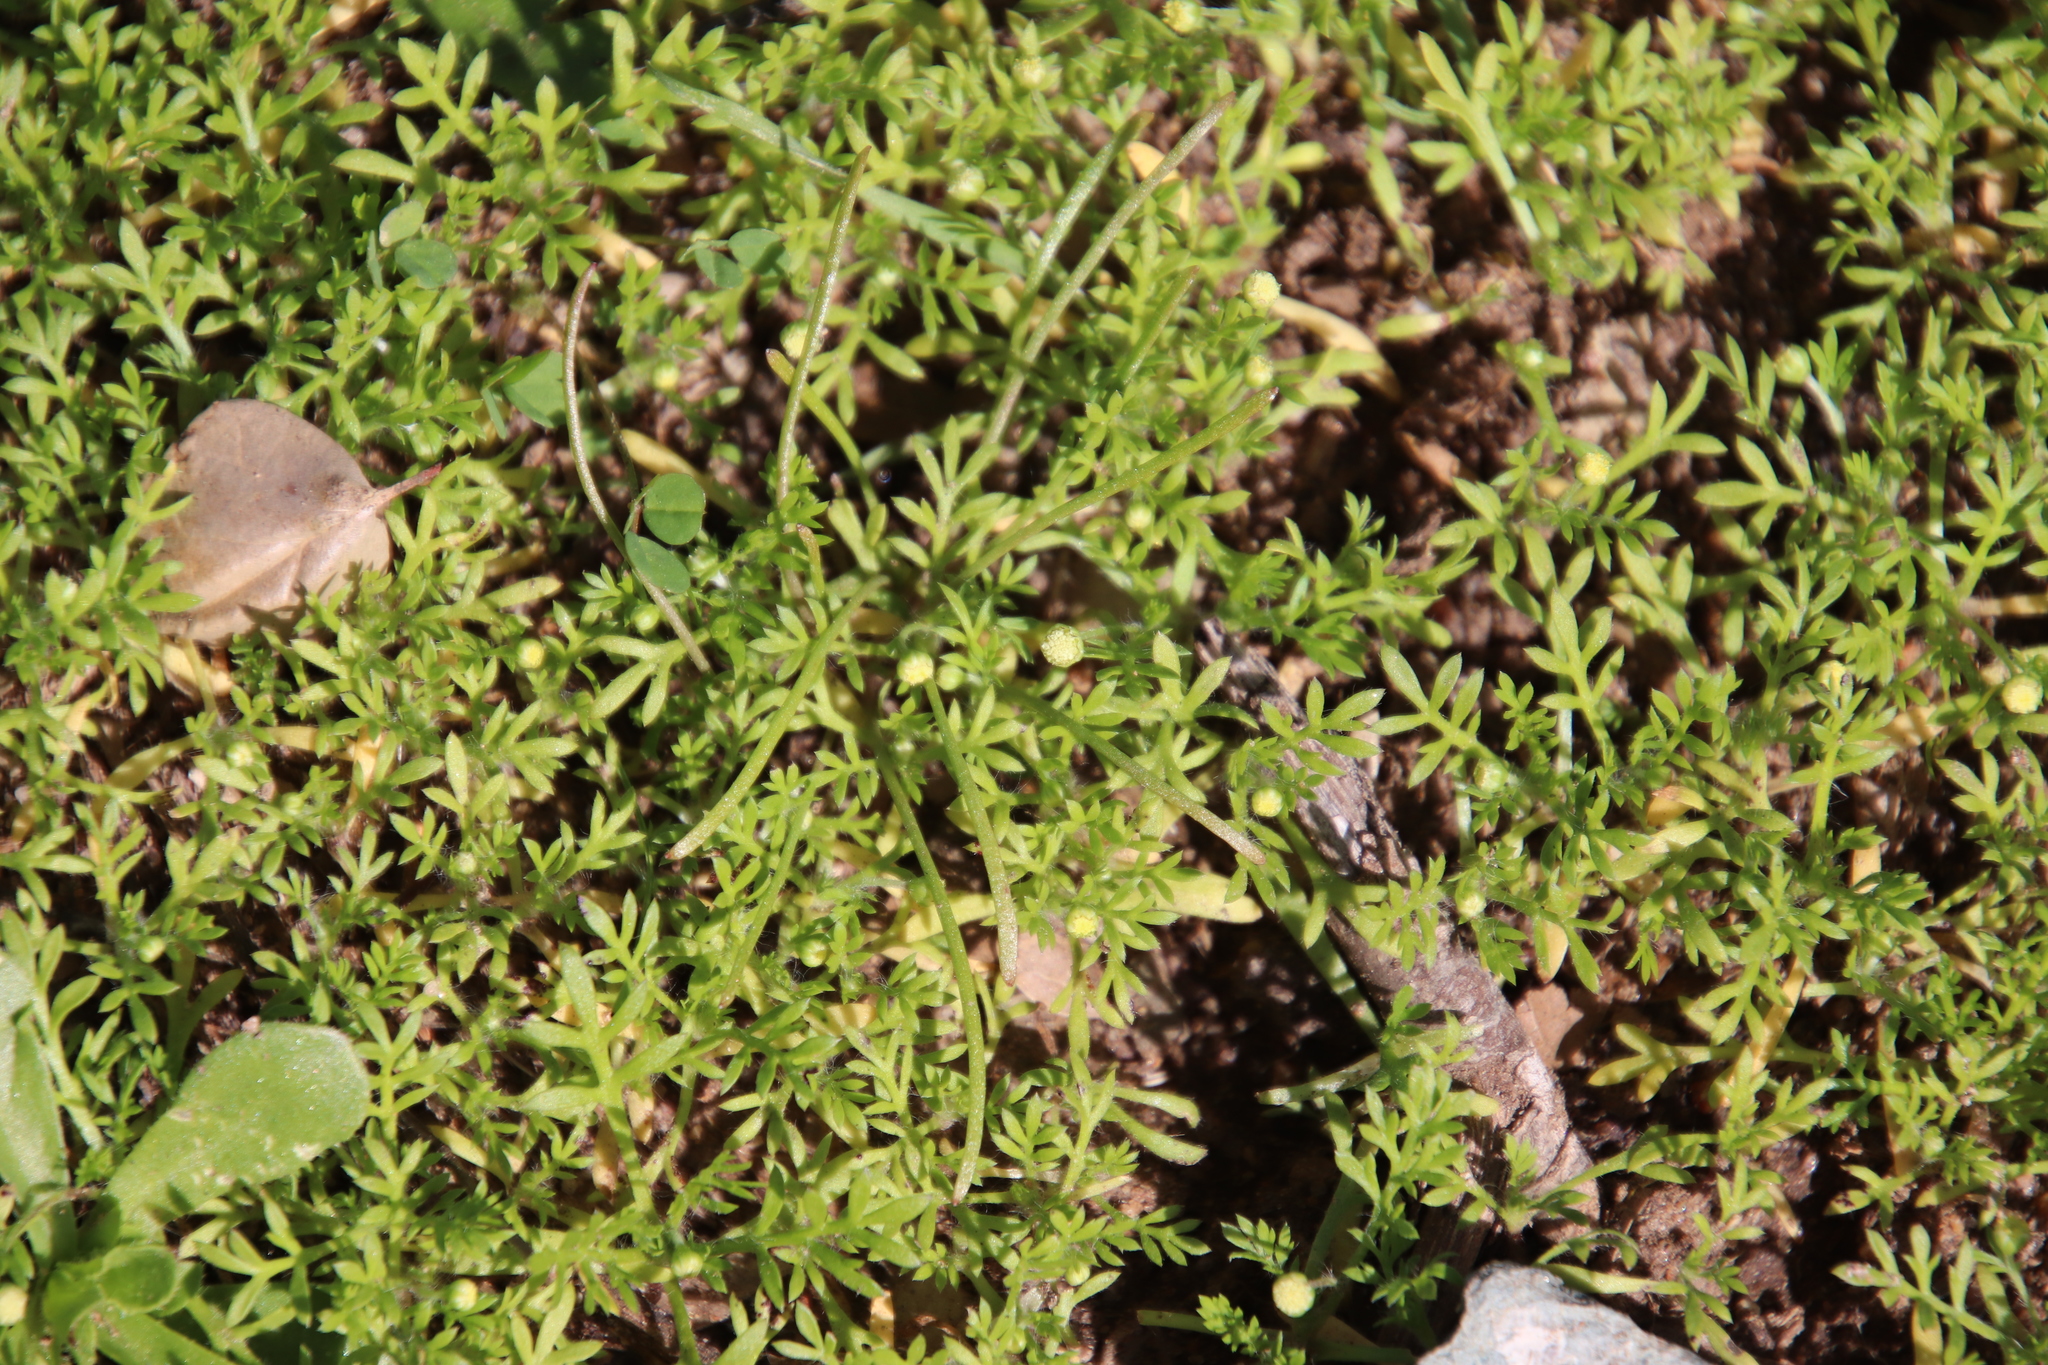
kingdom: Plantae
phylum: Tracheophyta
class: Magnoliopsida
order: Asterales
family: Asteraceae
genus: Cotula
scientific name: Cotula australis
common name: Australian waterbuttons
